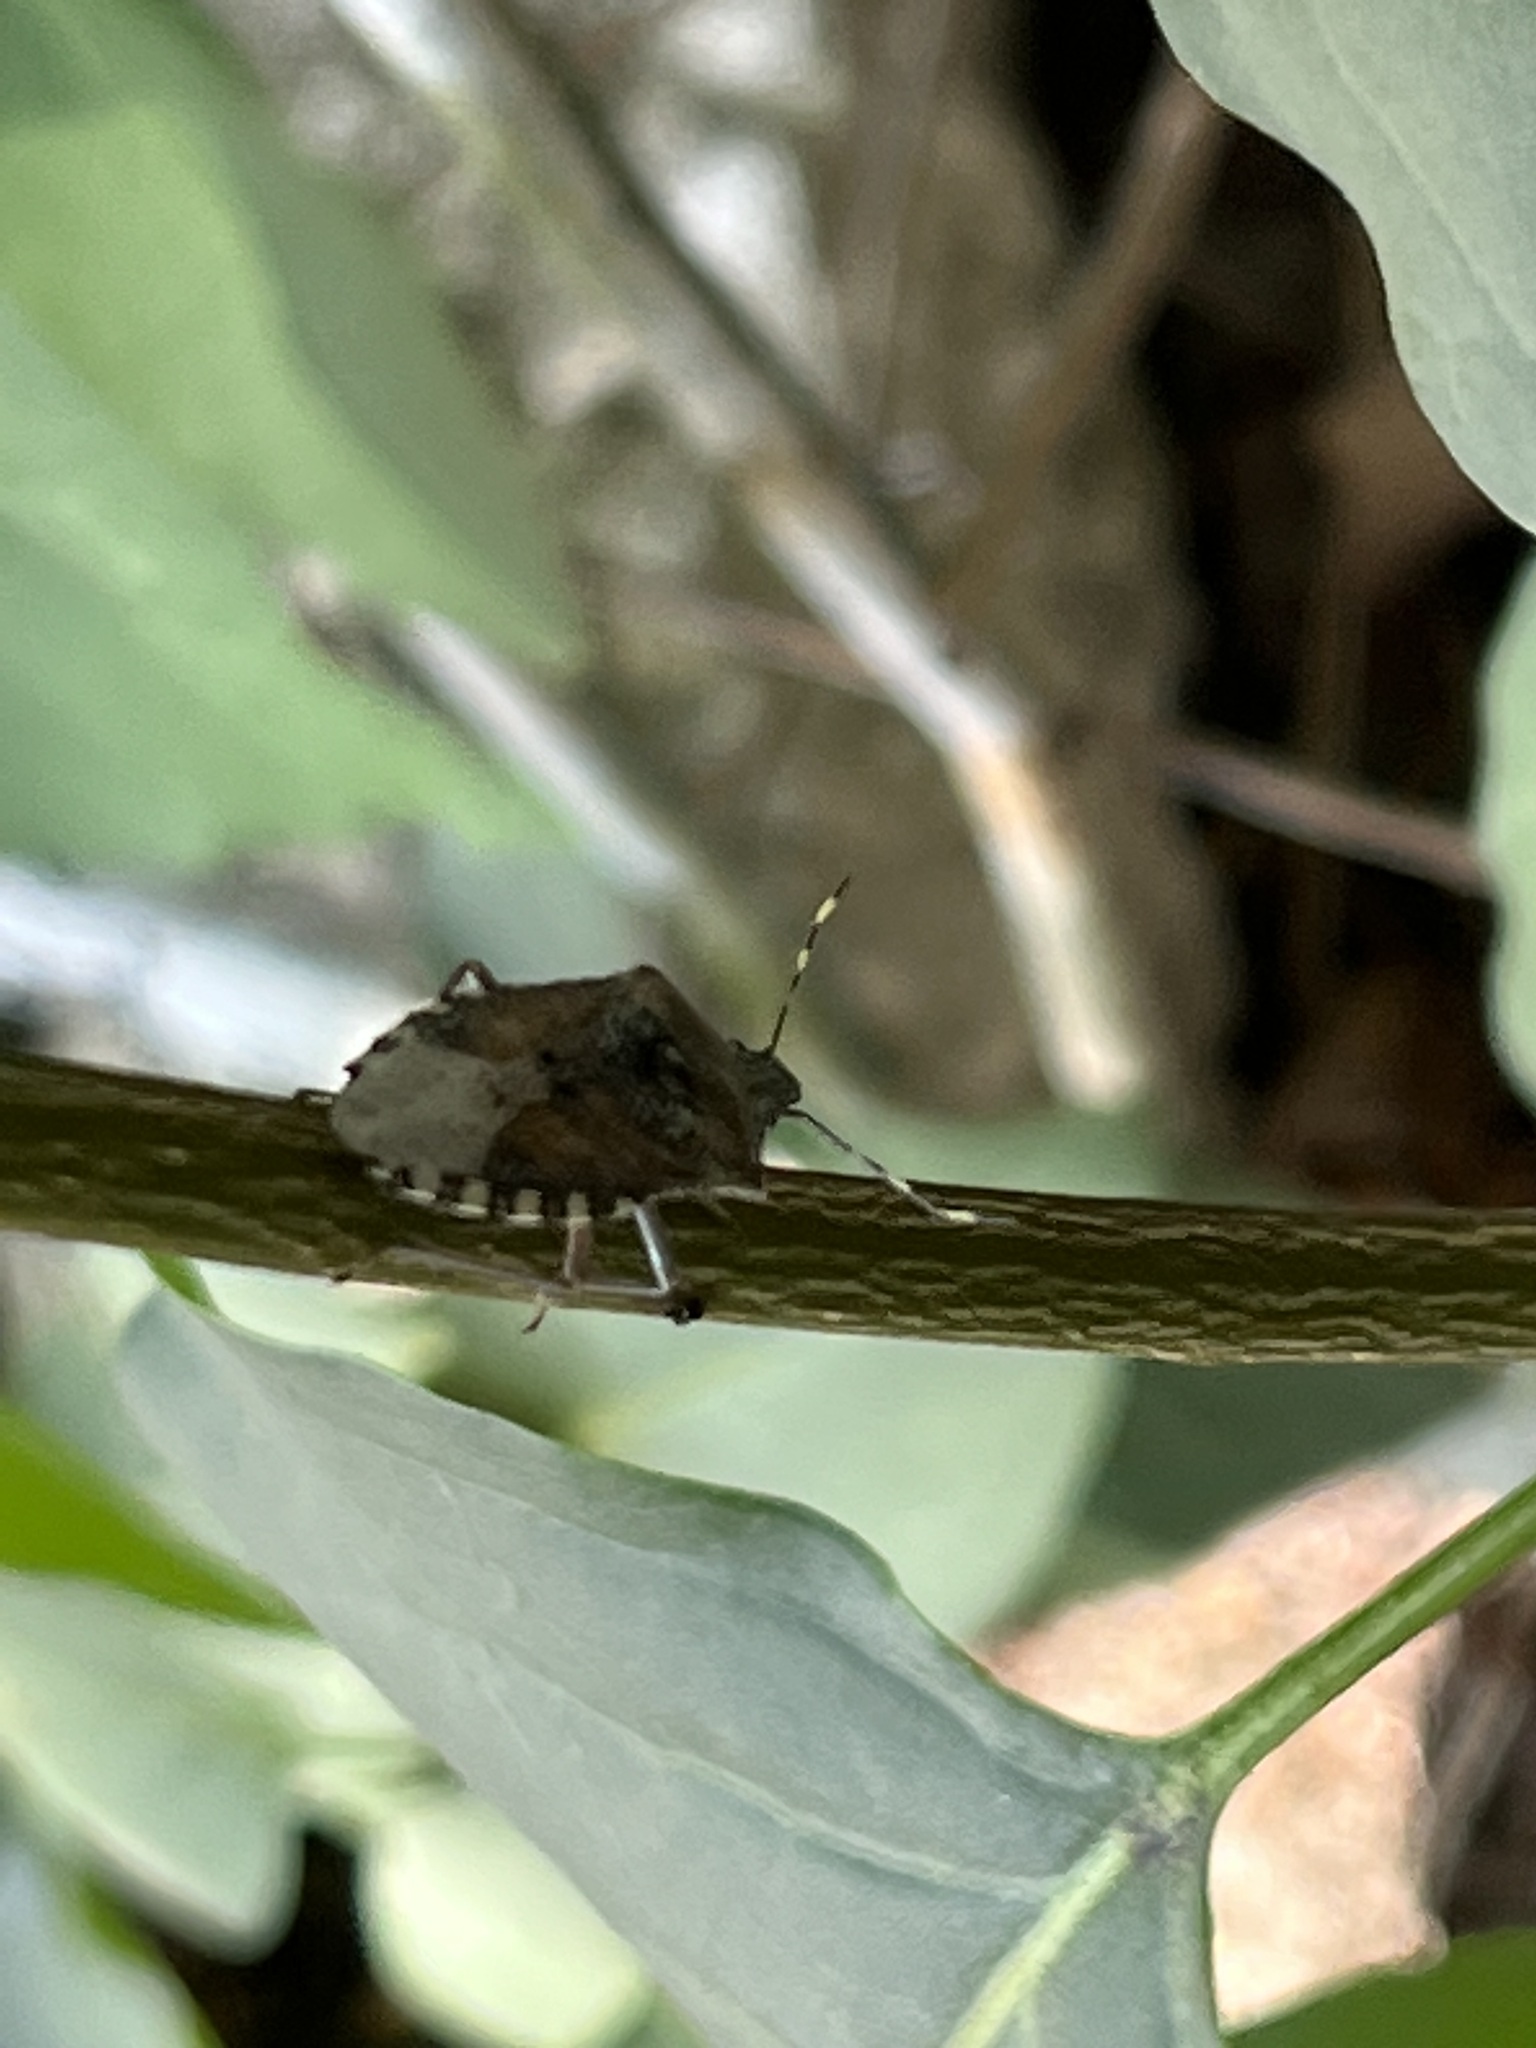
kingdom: Animalia
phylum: Arthropoda
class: Insecta
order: Hemiptera
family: Pentatomidae
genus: Rhaphigaster
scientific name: Rhaphigaster nebulosa
